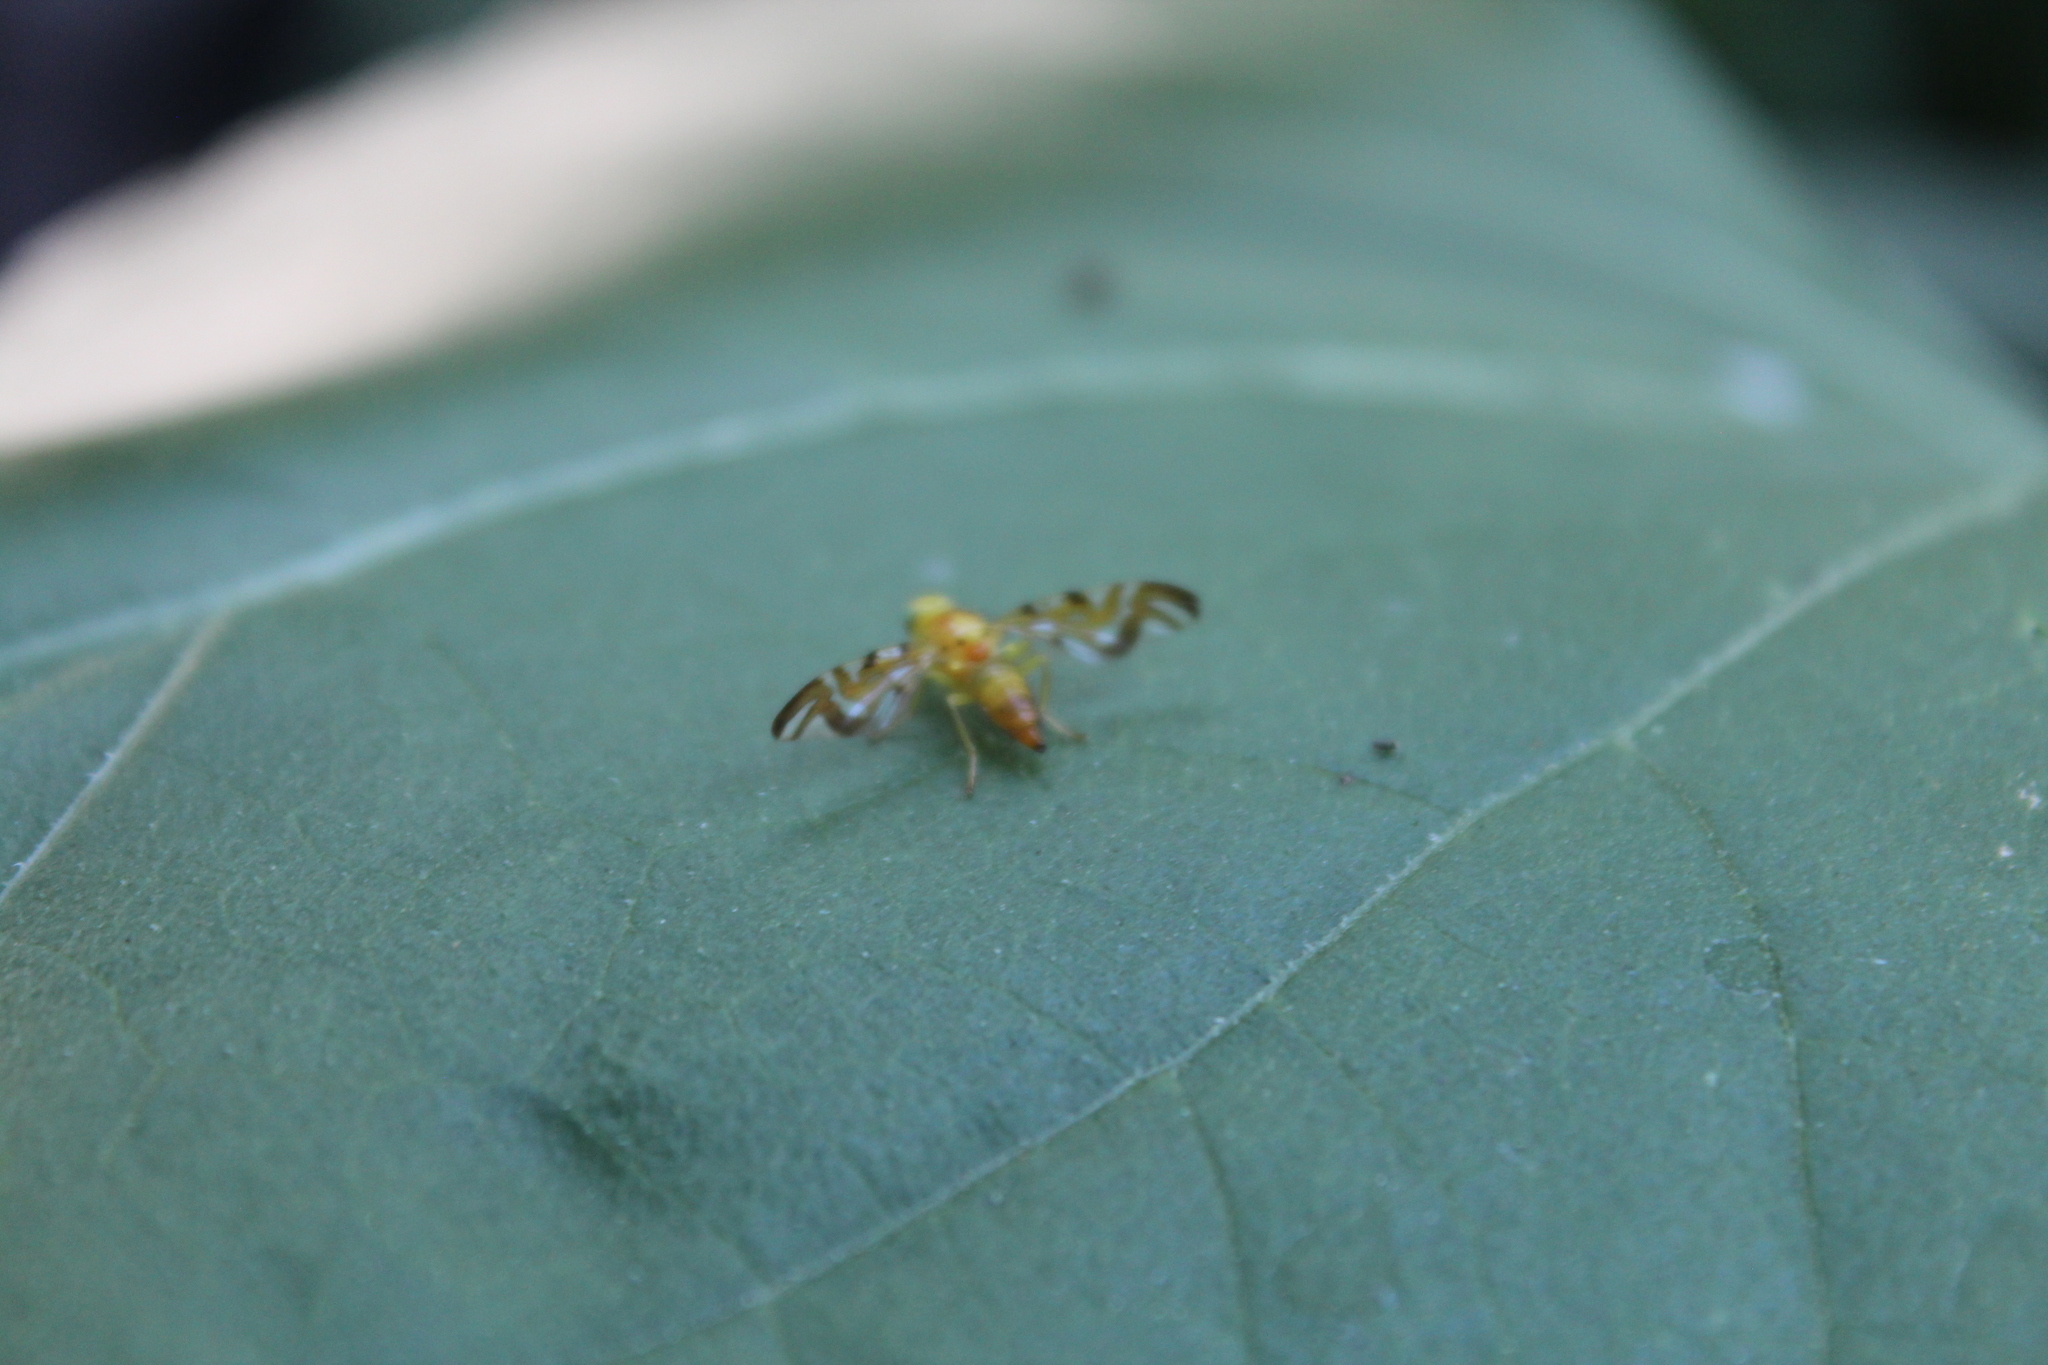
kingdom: Animalia
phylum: Arthropoda
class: Insecta
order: Diptera
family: Tephritidae
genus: Strauzia
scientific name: Strauzia longipennis
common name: Sunflower maggot
